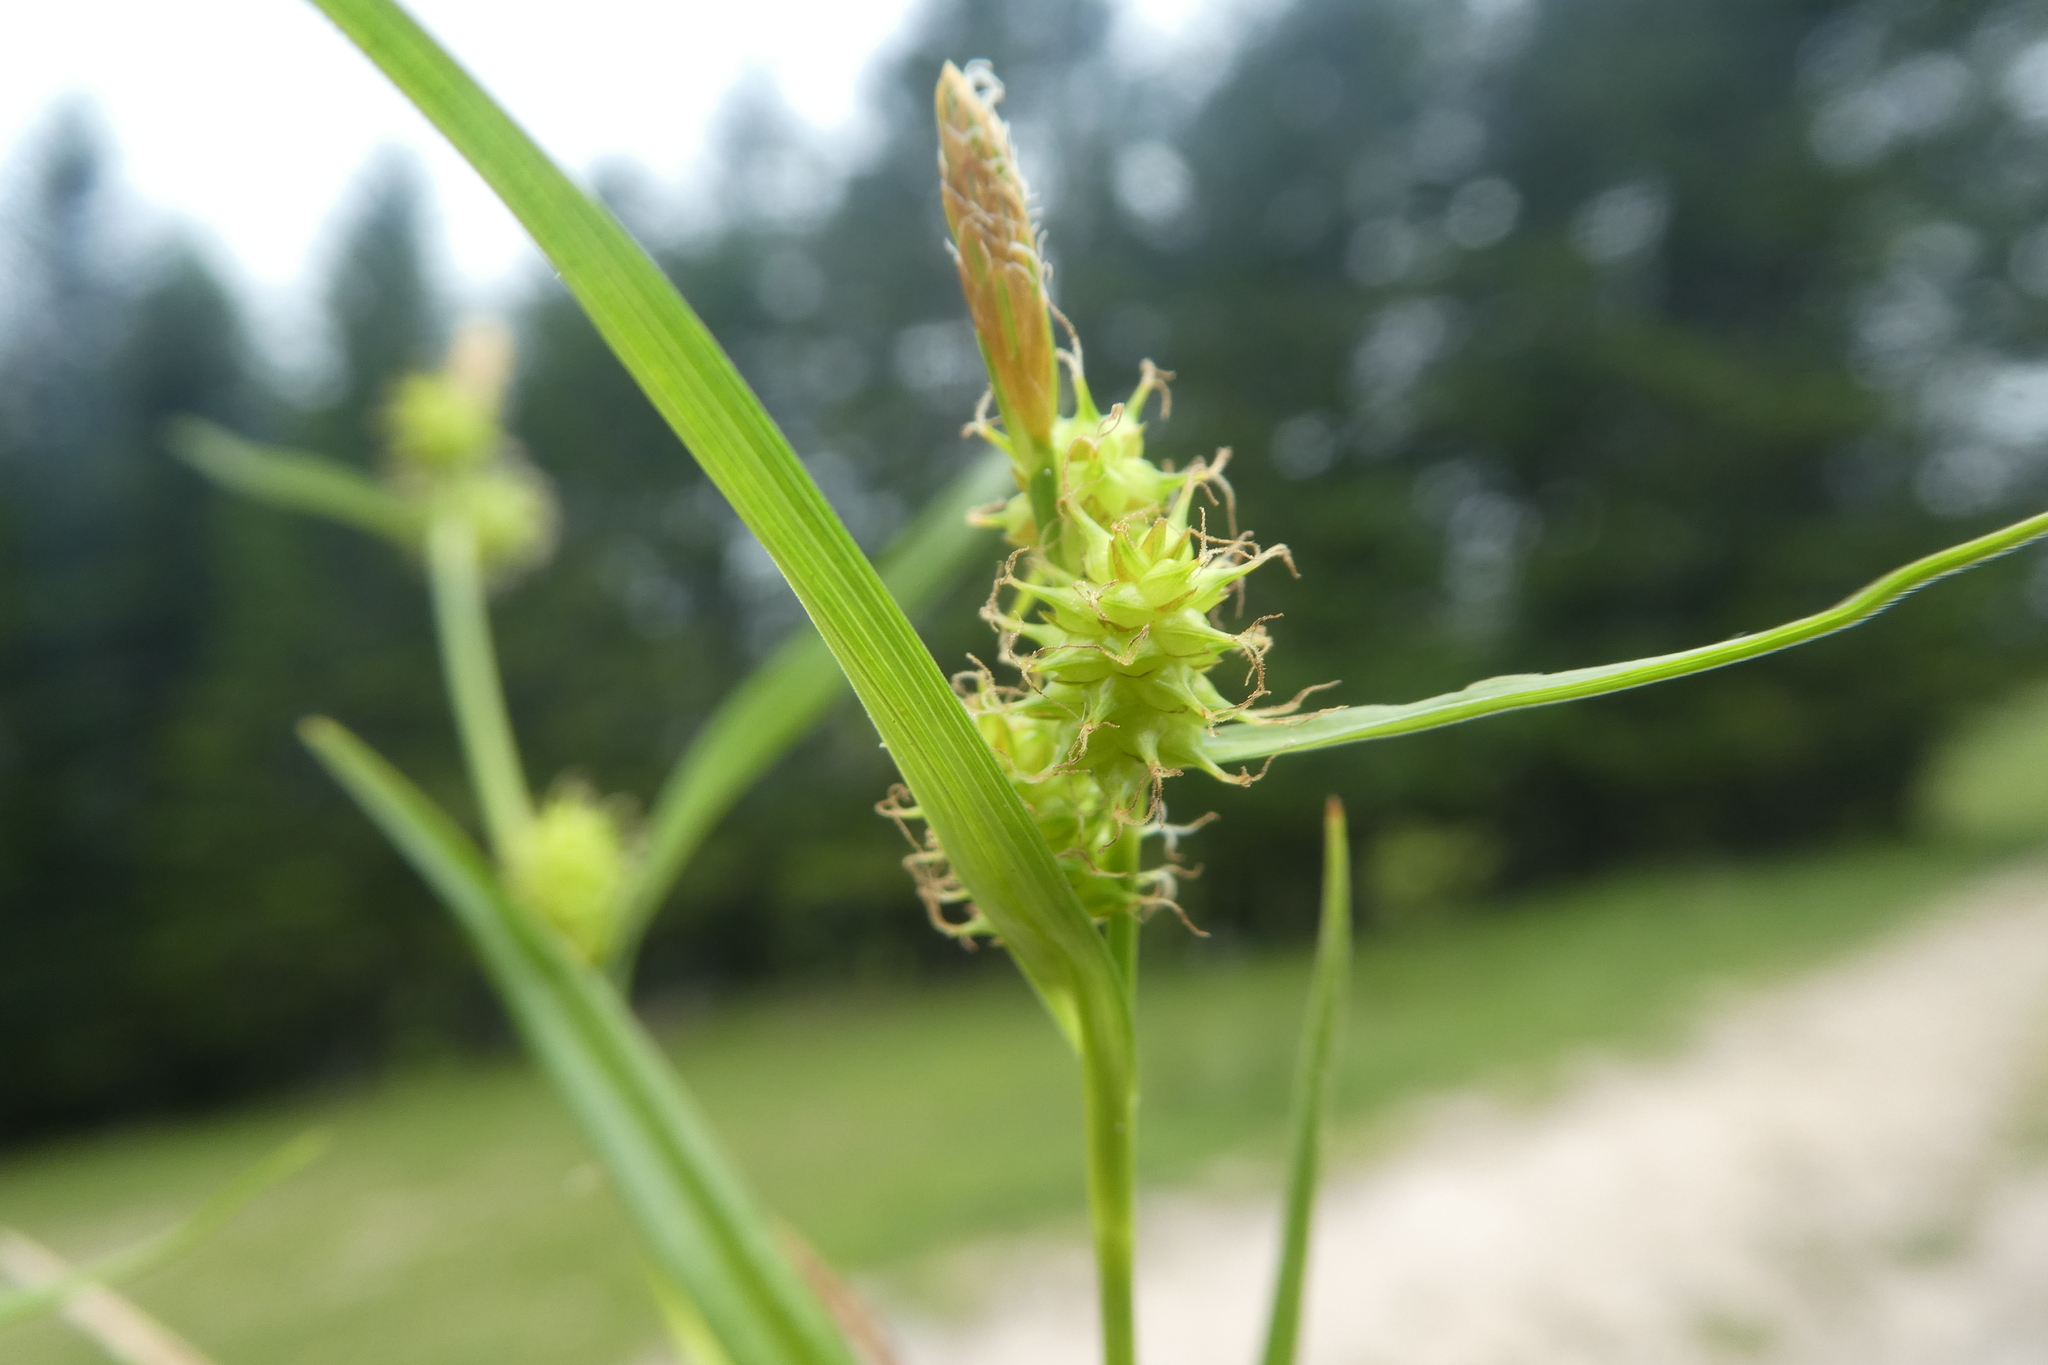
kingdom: Plantae
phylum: Tracheophyta
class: Liliopsida
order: Poales
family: Cyperaceae
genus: Carex
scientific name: Carex demissa
